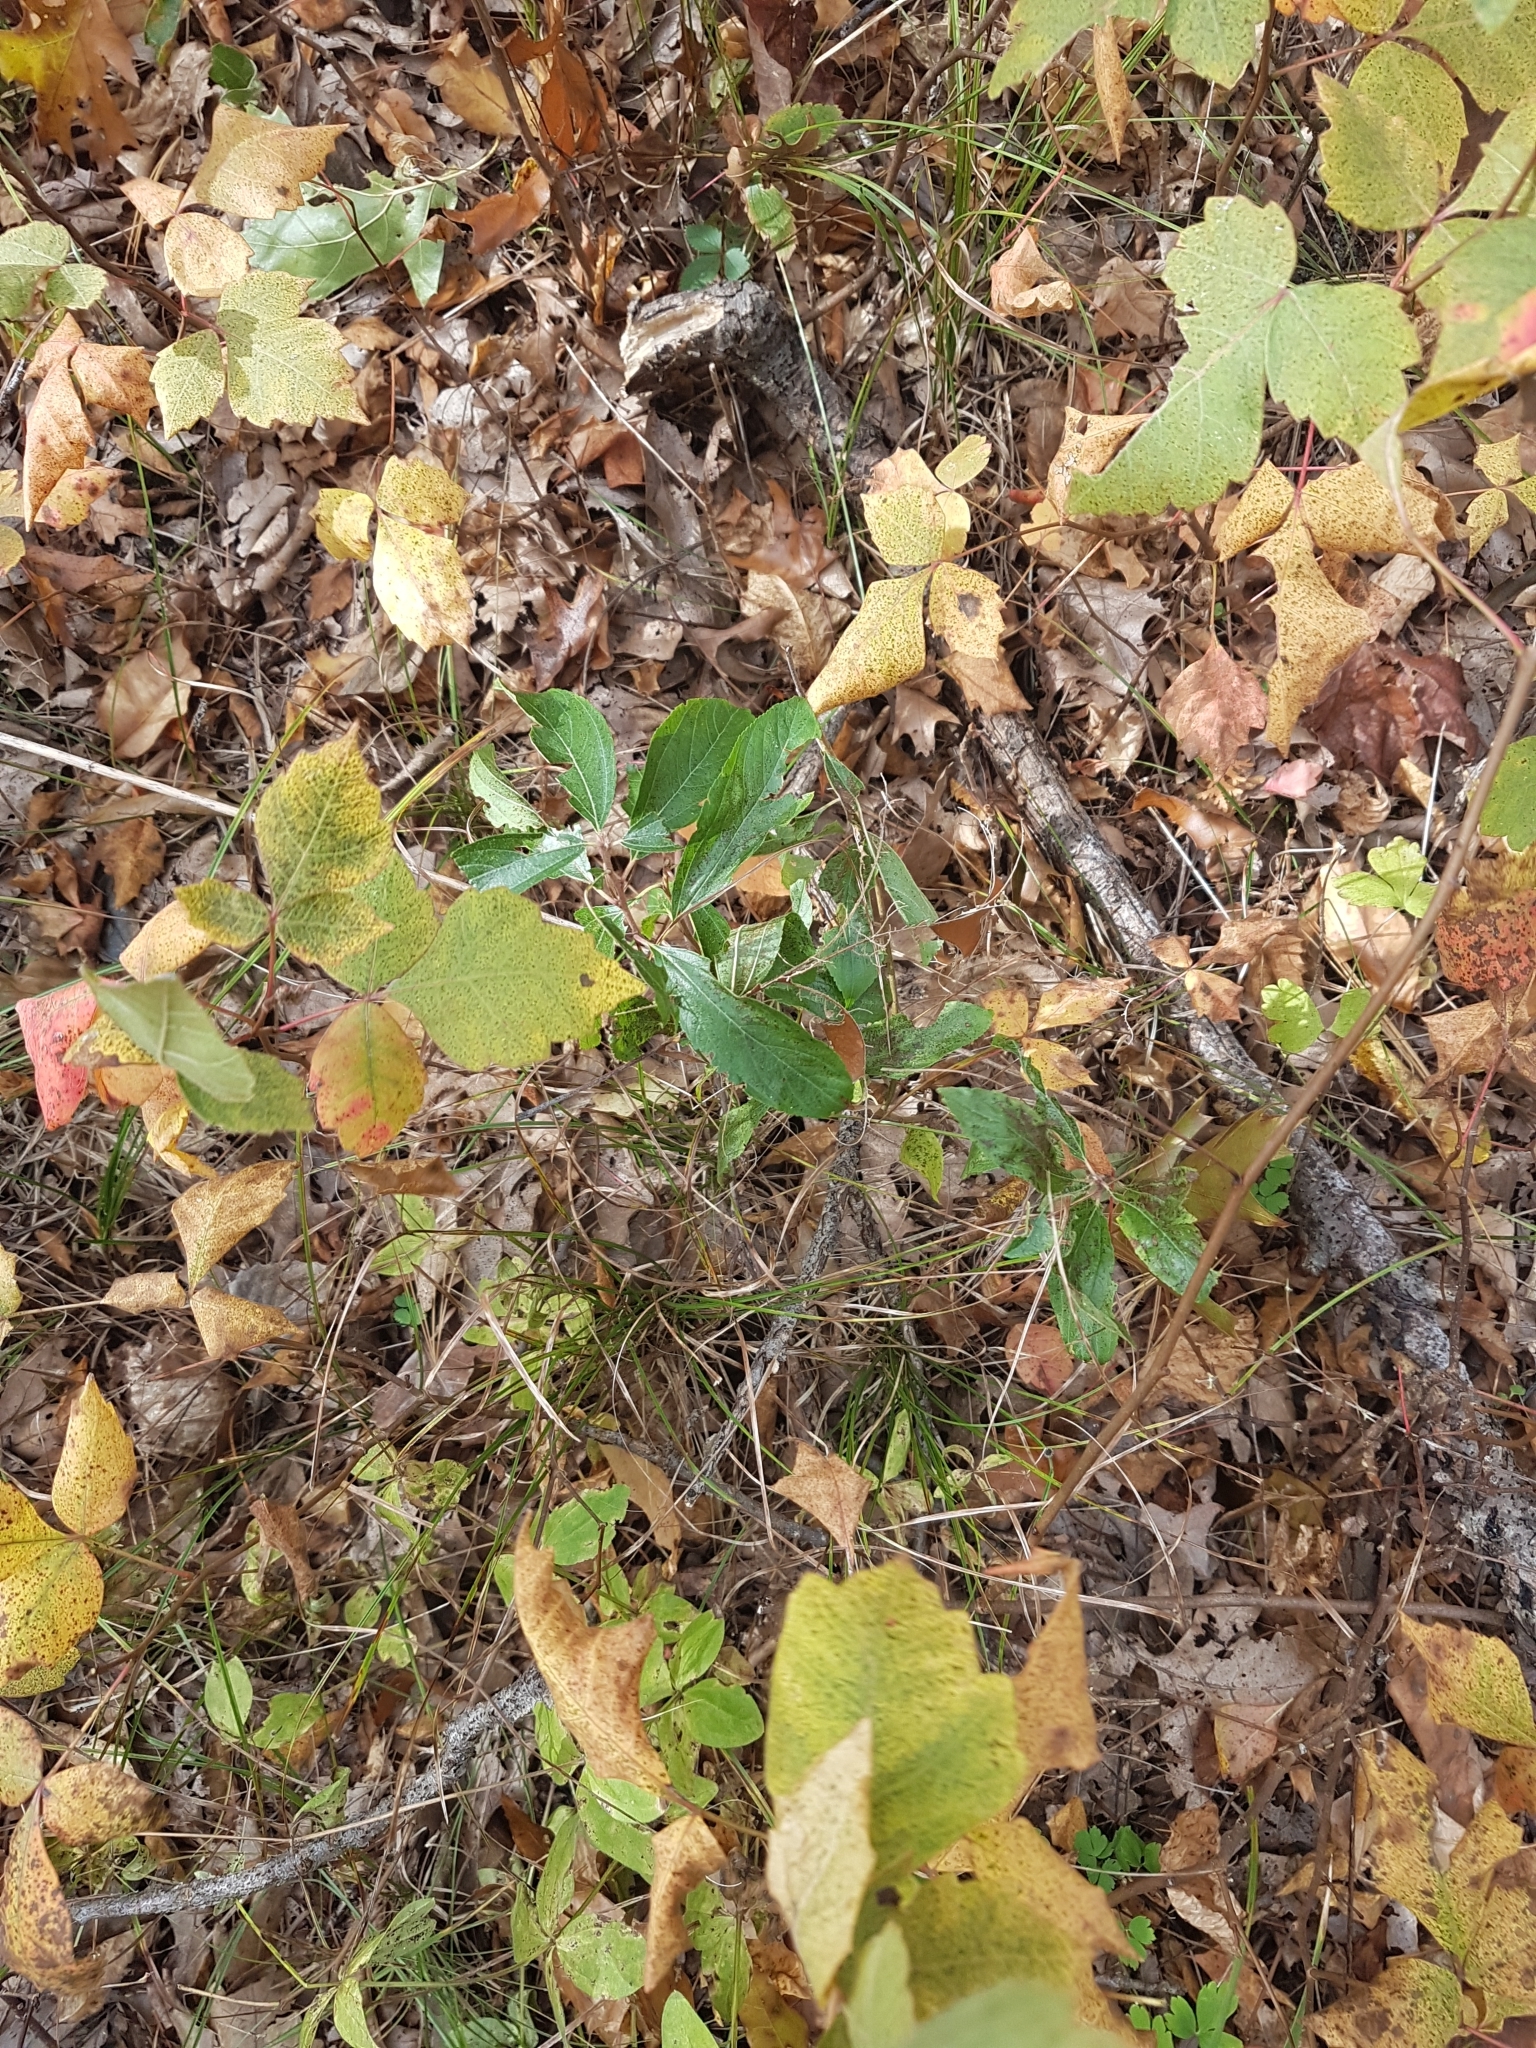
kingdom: Plantae
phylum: Tracheophyta
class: Magnoliopsida
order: Rosales
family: Rhamnaceae
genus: Ceanothus
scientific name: Ceanothus herbaceus
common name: Inland ceanothus
